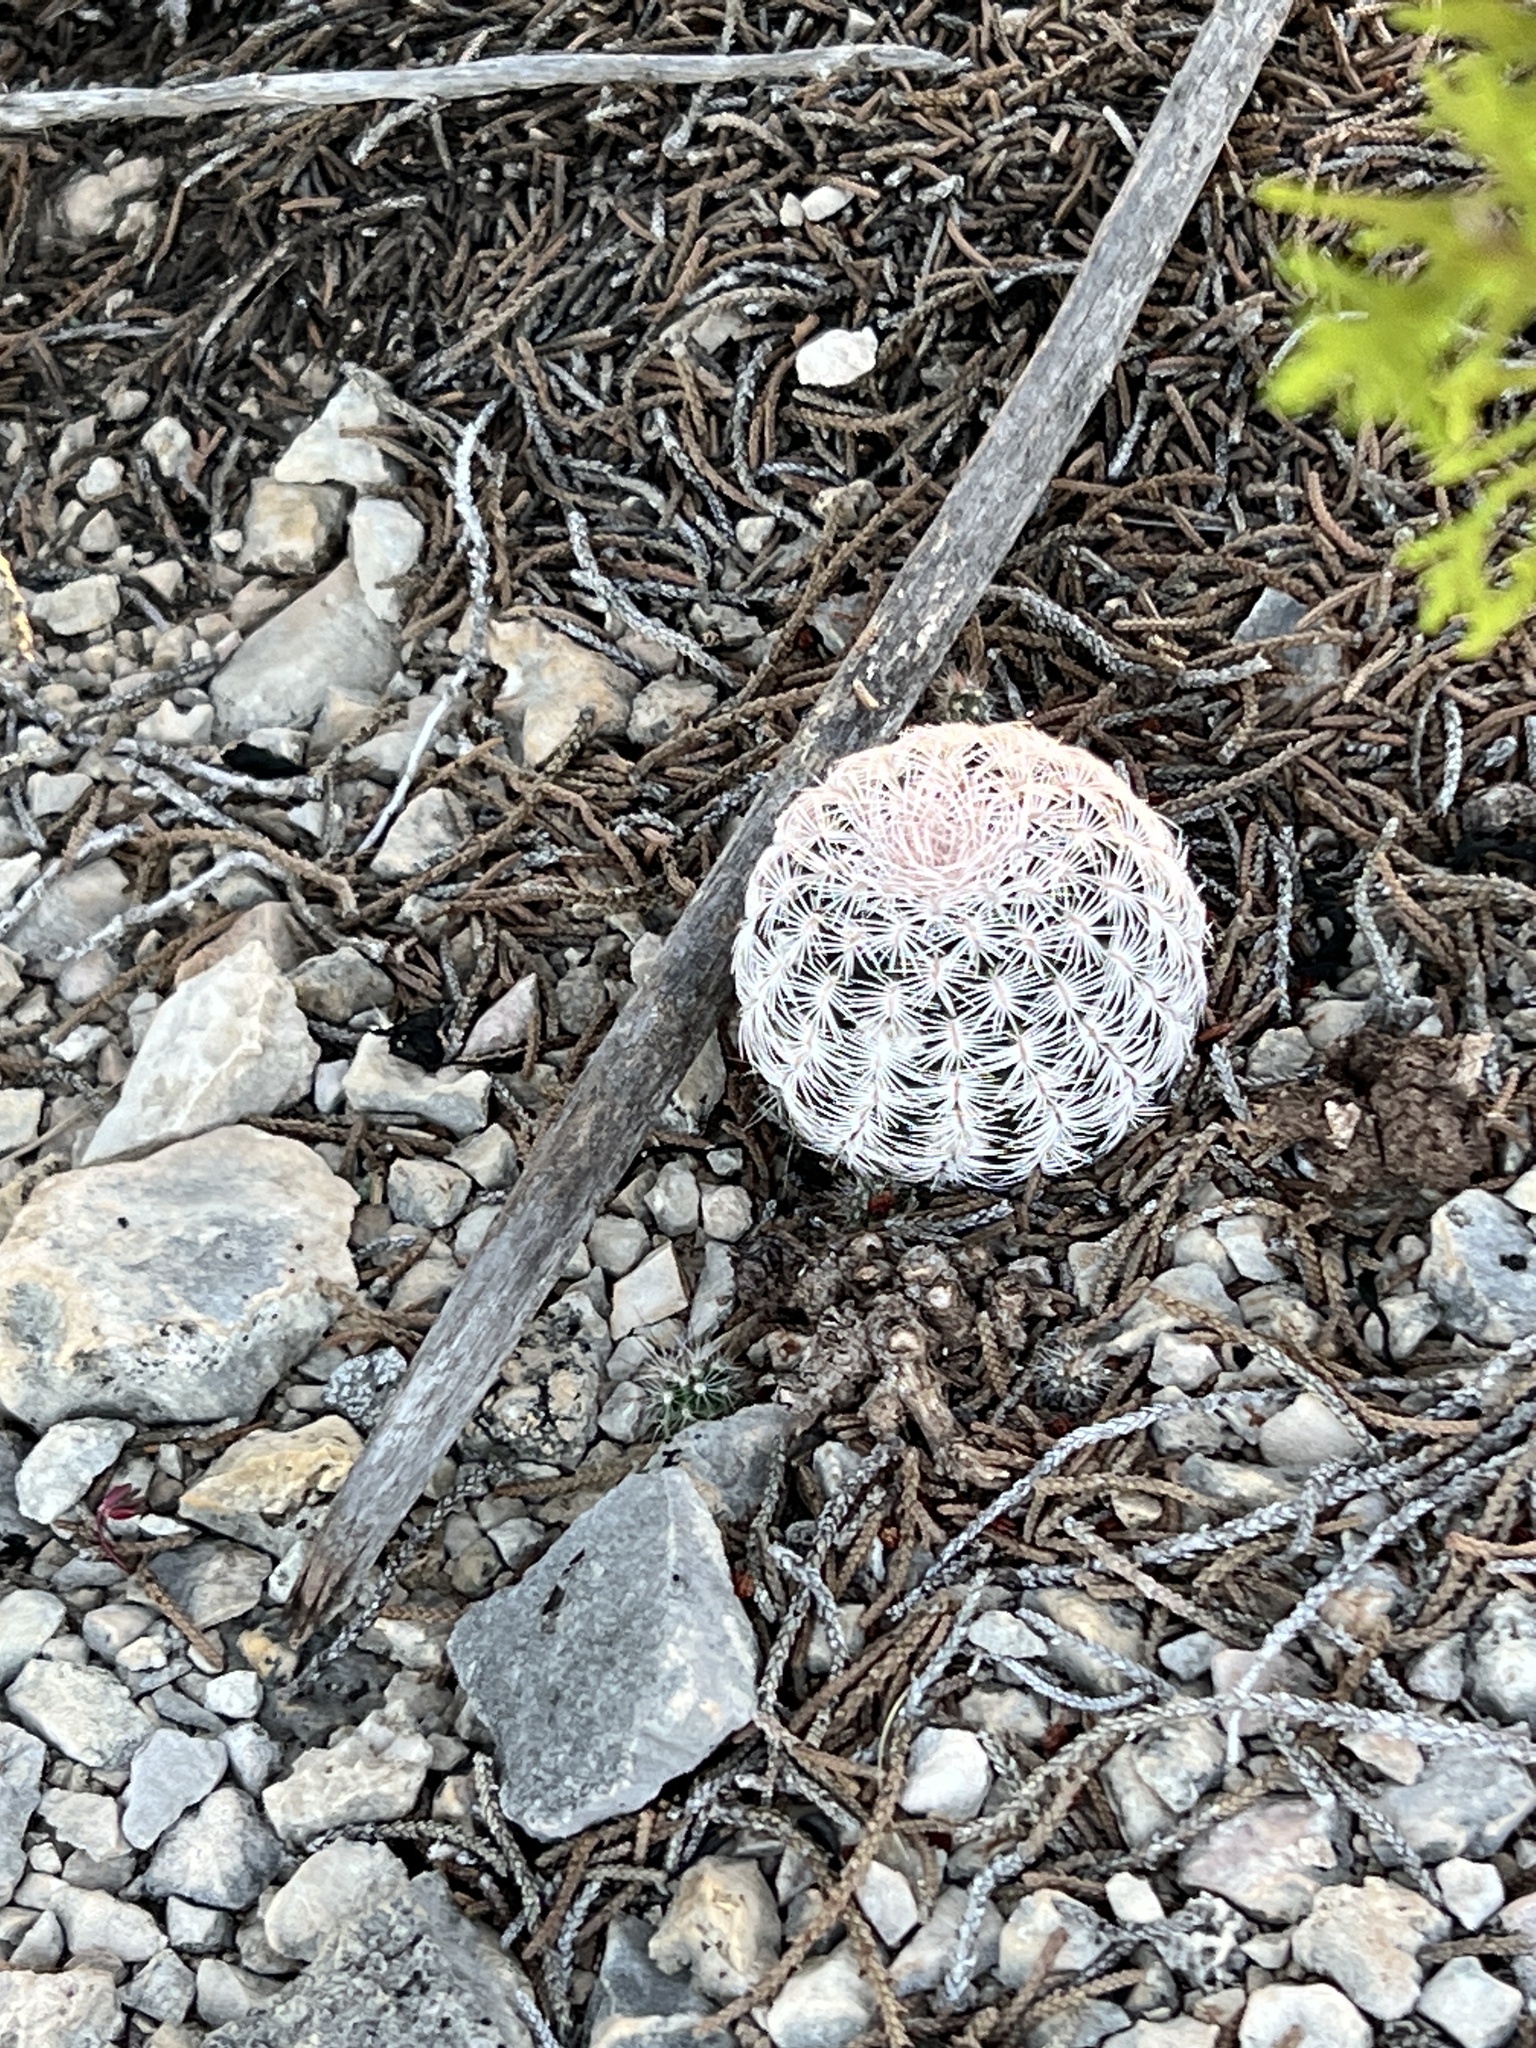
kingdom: Plantae
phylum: Tracheophyta
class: Magnoliopsida
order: Caryophyllales
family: Cactaceae
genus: Echinocereus
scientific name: Echinocereus reichenbachii
